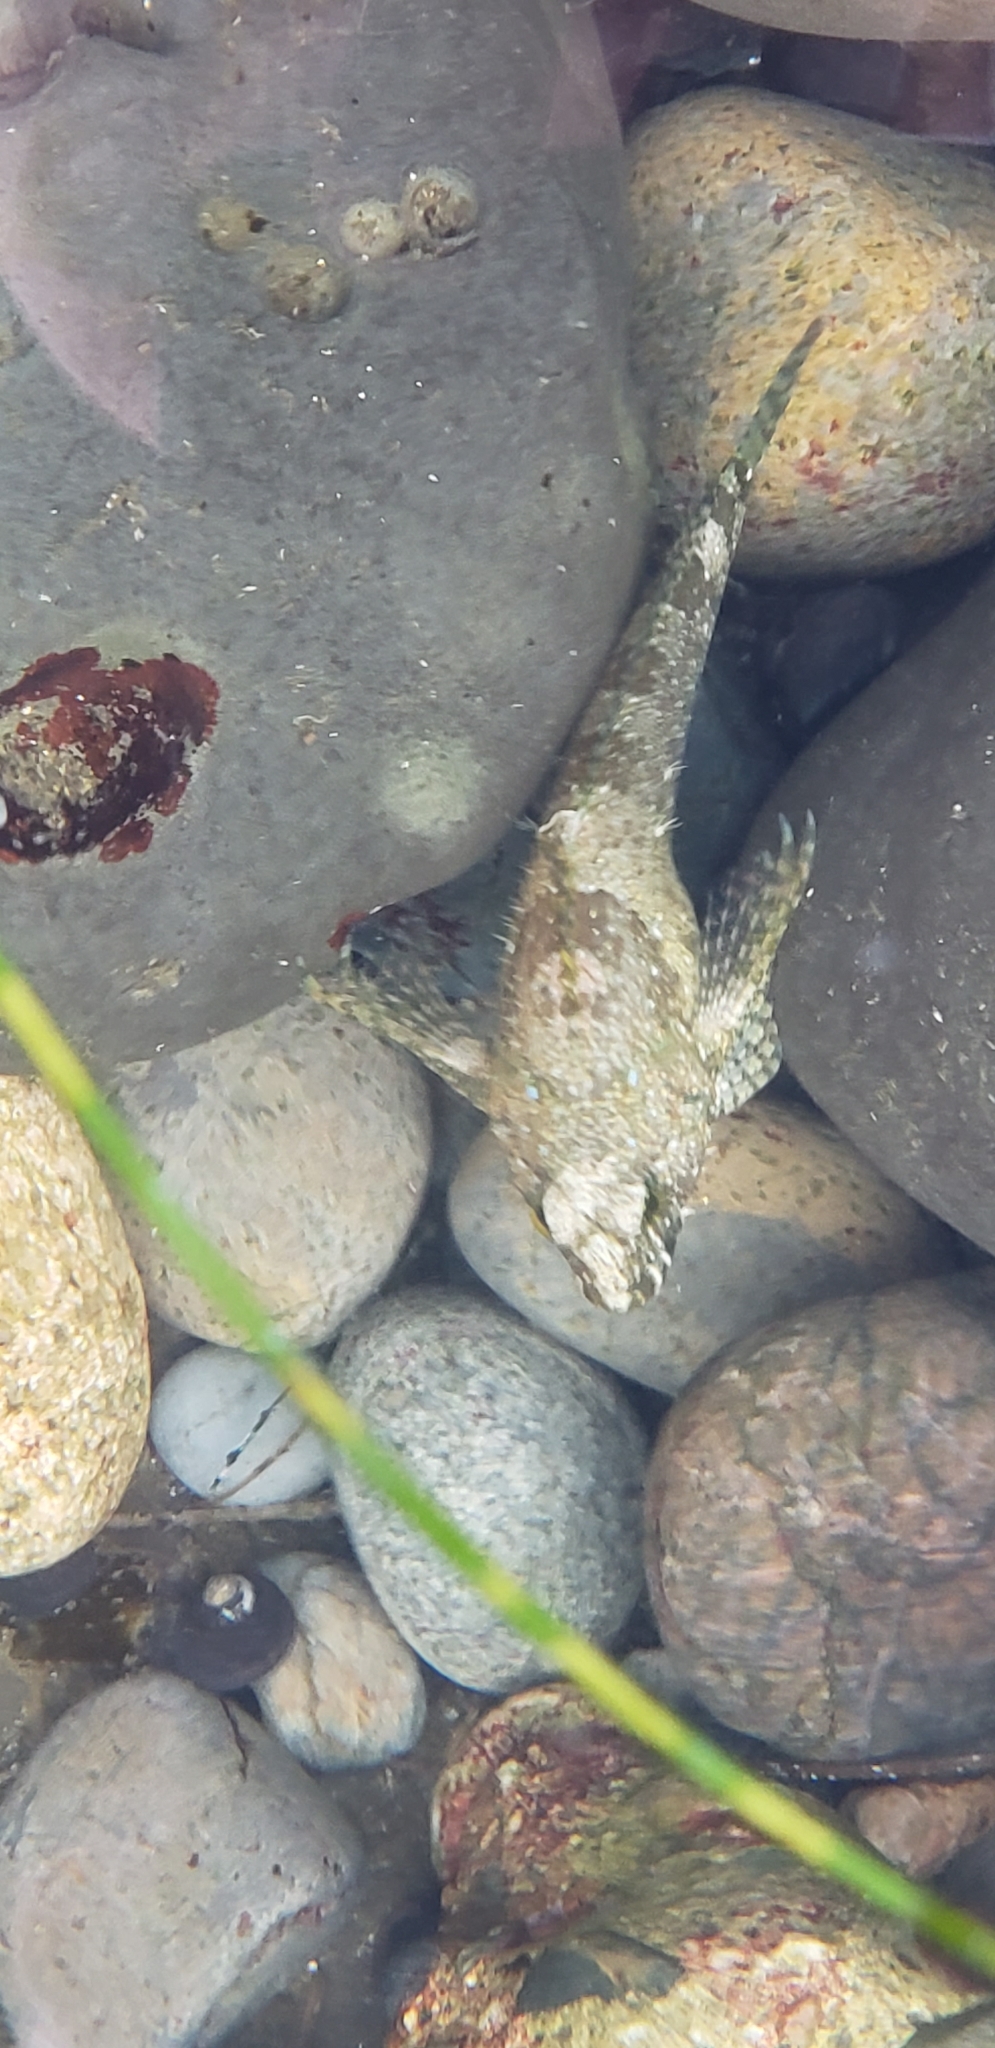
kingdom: Animalia
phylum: Chordata
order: Scorpaeniformes
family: Cottidae
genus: Clinocottus
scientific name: Clinocottus analis
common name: Woolly sculpin
